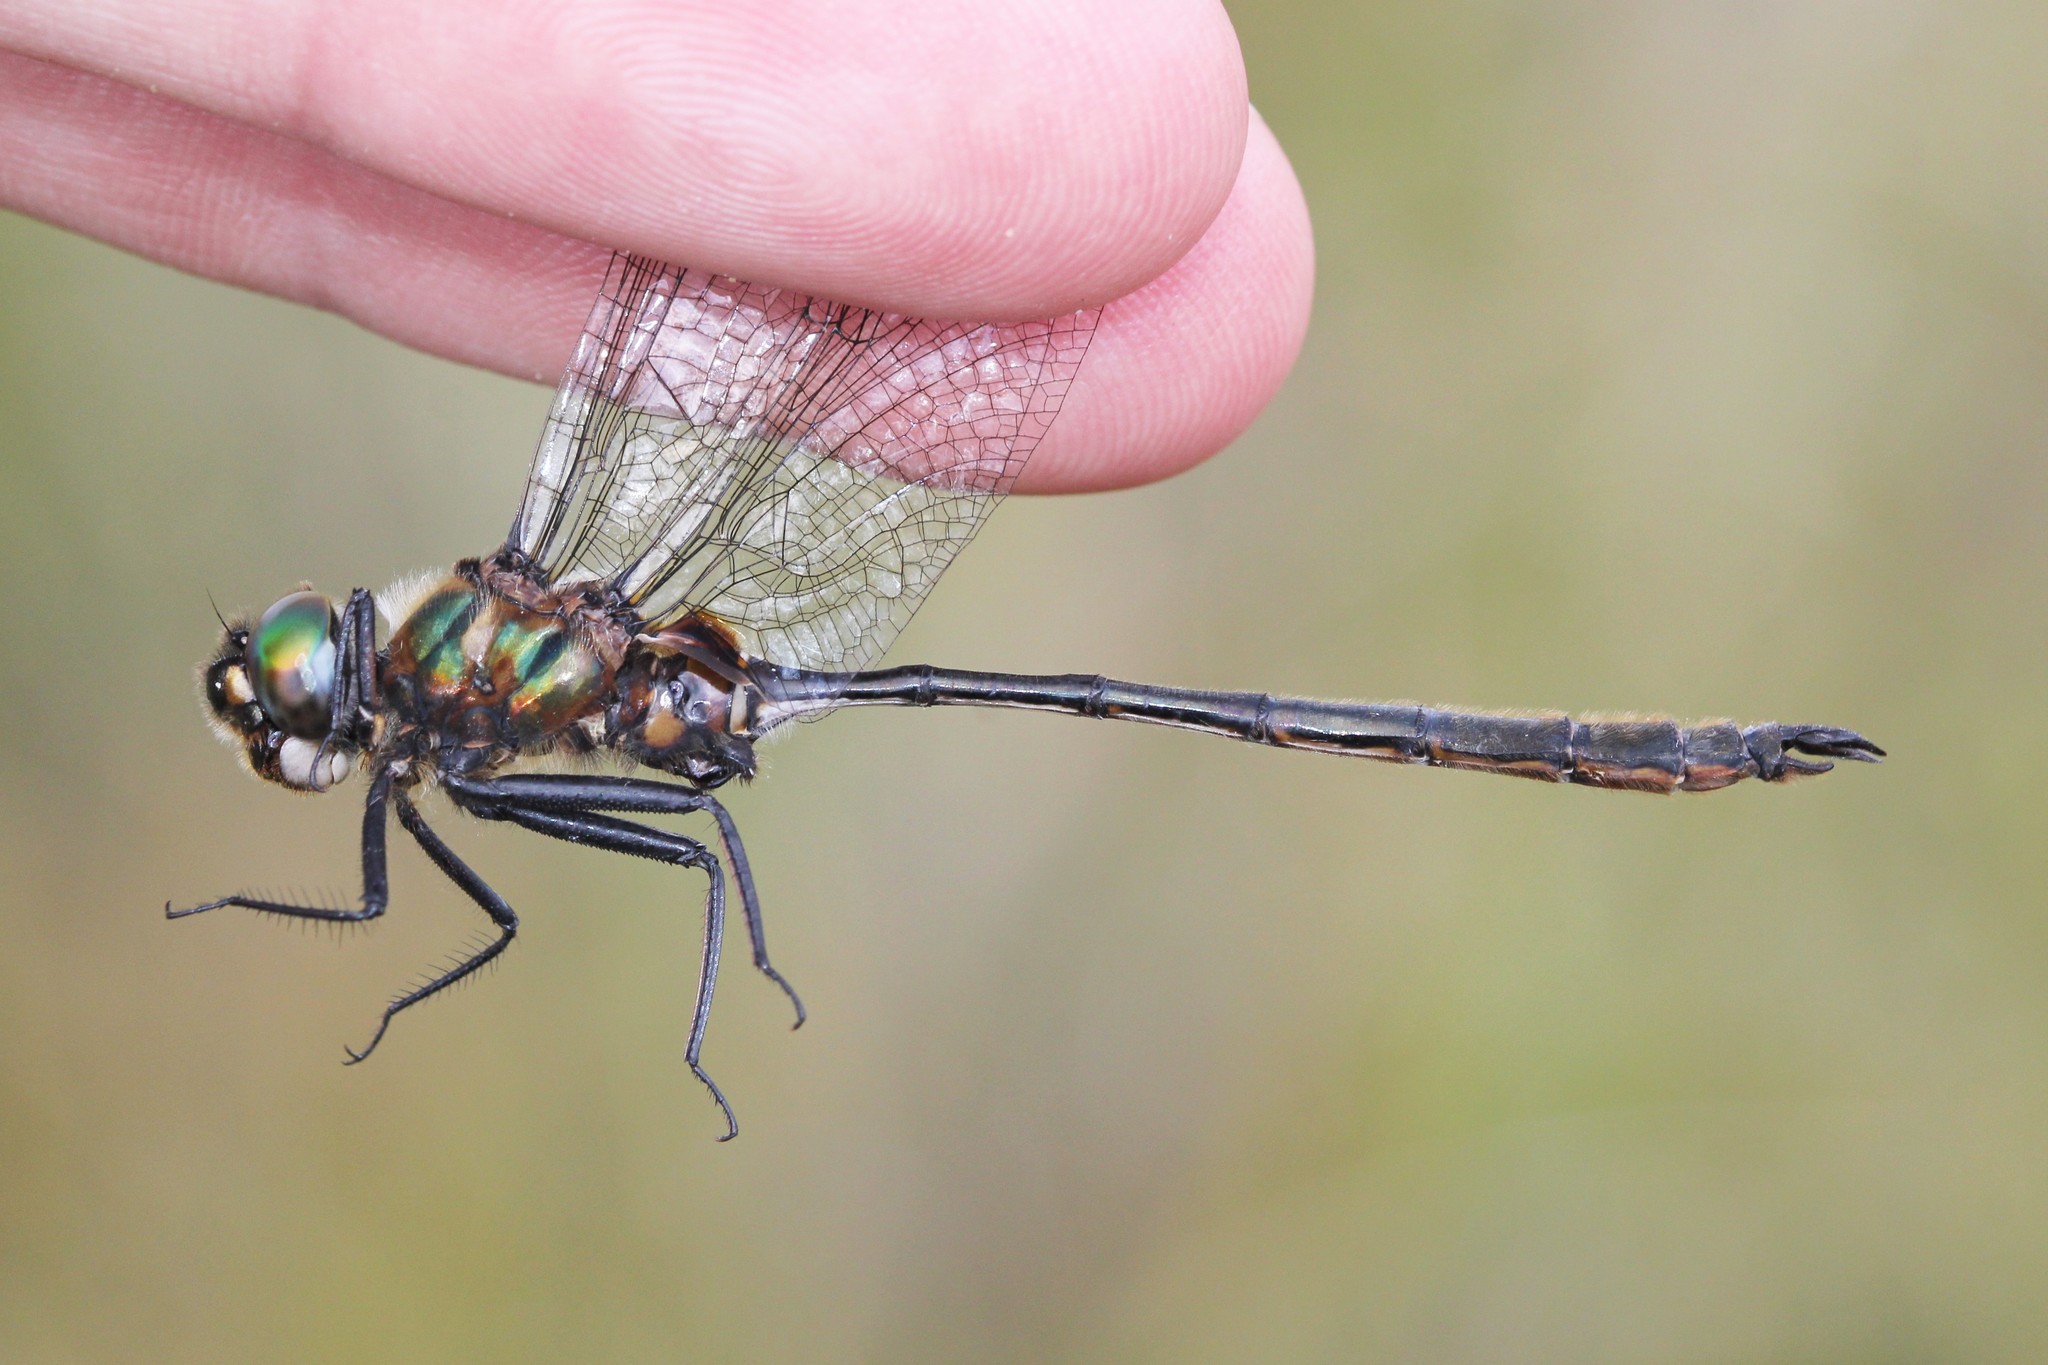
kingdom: Animalia
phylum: Arthropoda
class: Insecta
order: Odonata
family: Corduliidae
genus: Somatochlora
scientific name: Somatochlora franklini
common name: Delicate emerald
